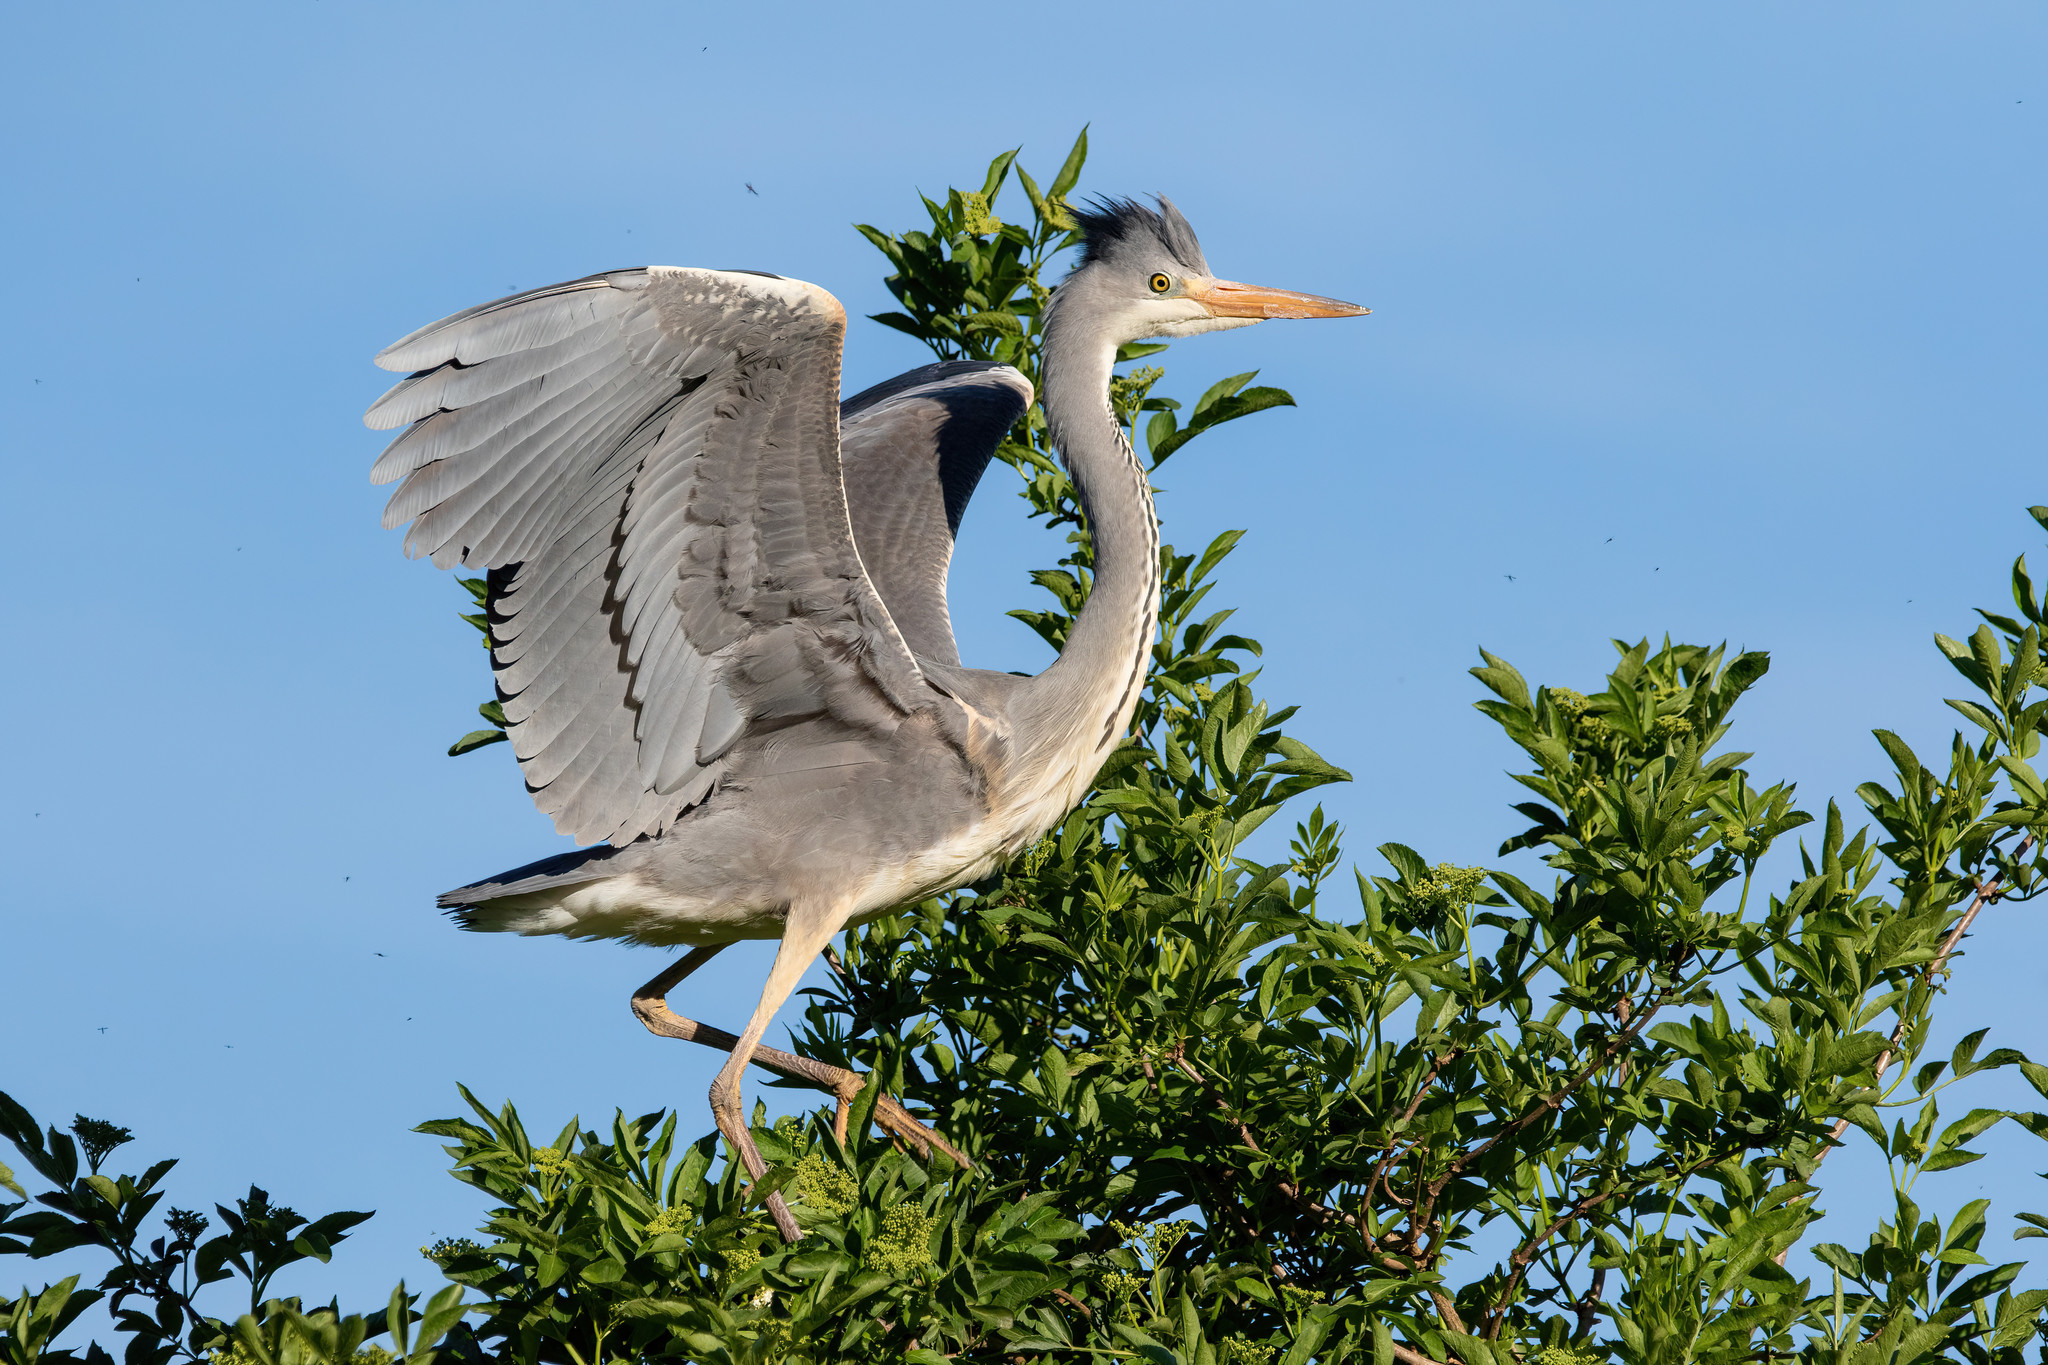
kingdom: Animalia
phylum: Chordata
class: Aves
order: Pelecaniformes
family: Ardeidae
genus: Ardea
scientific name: Ardea cinerea
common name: Grey heron
